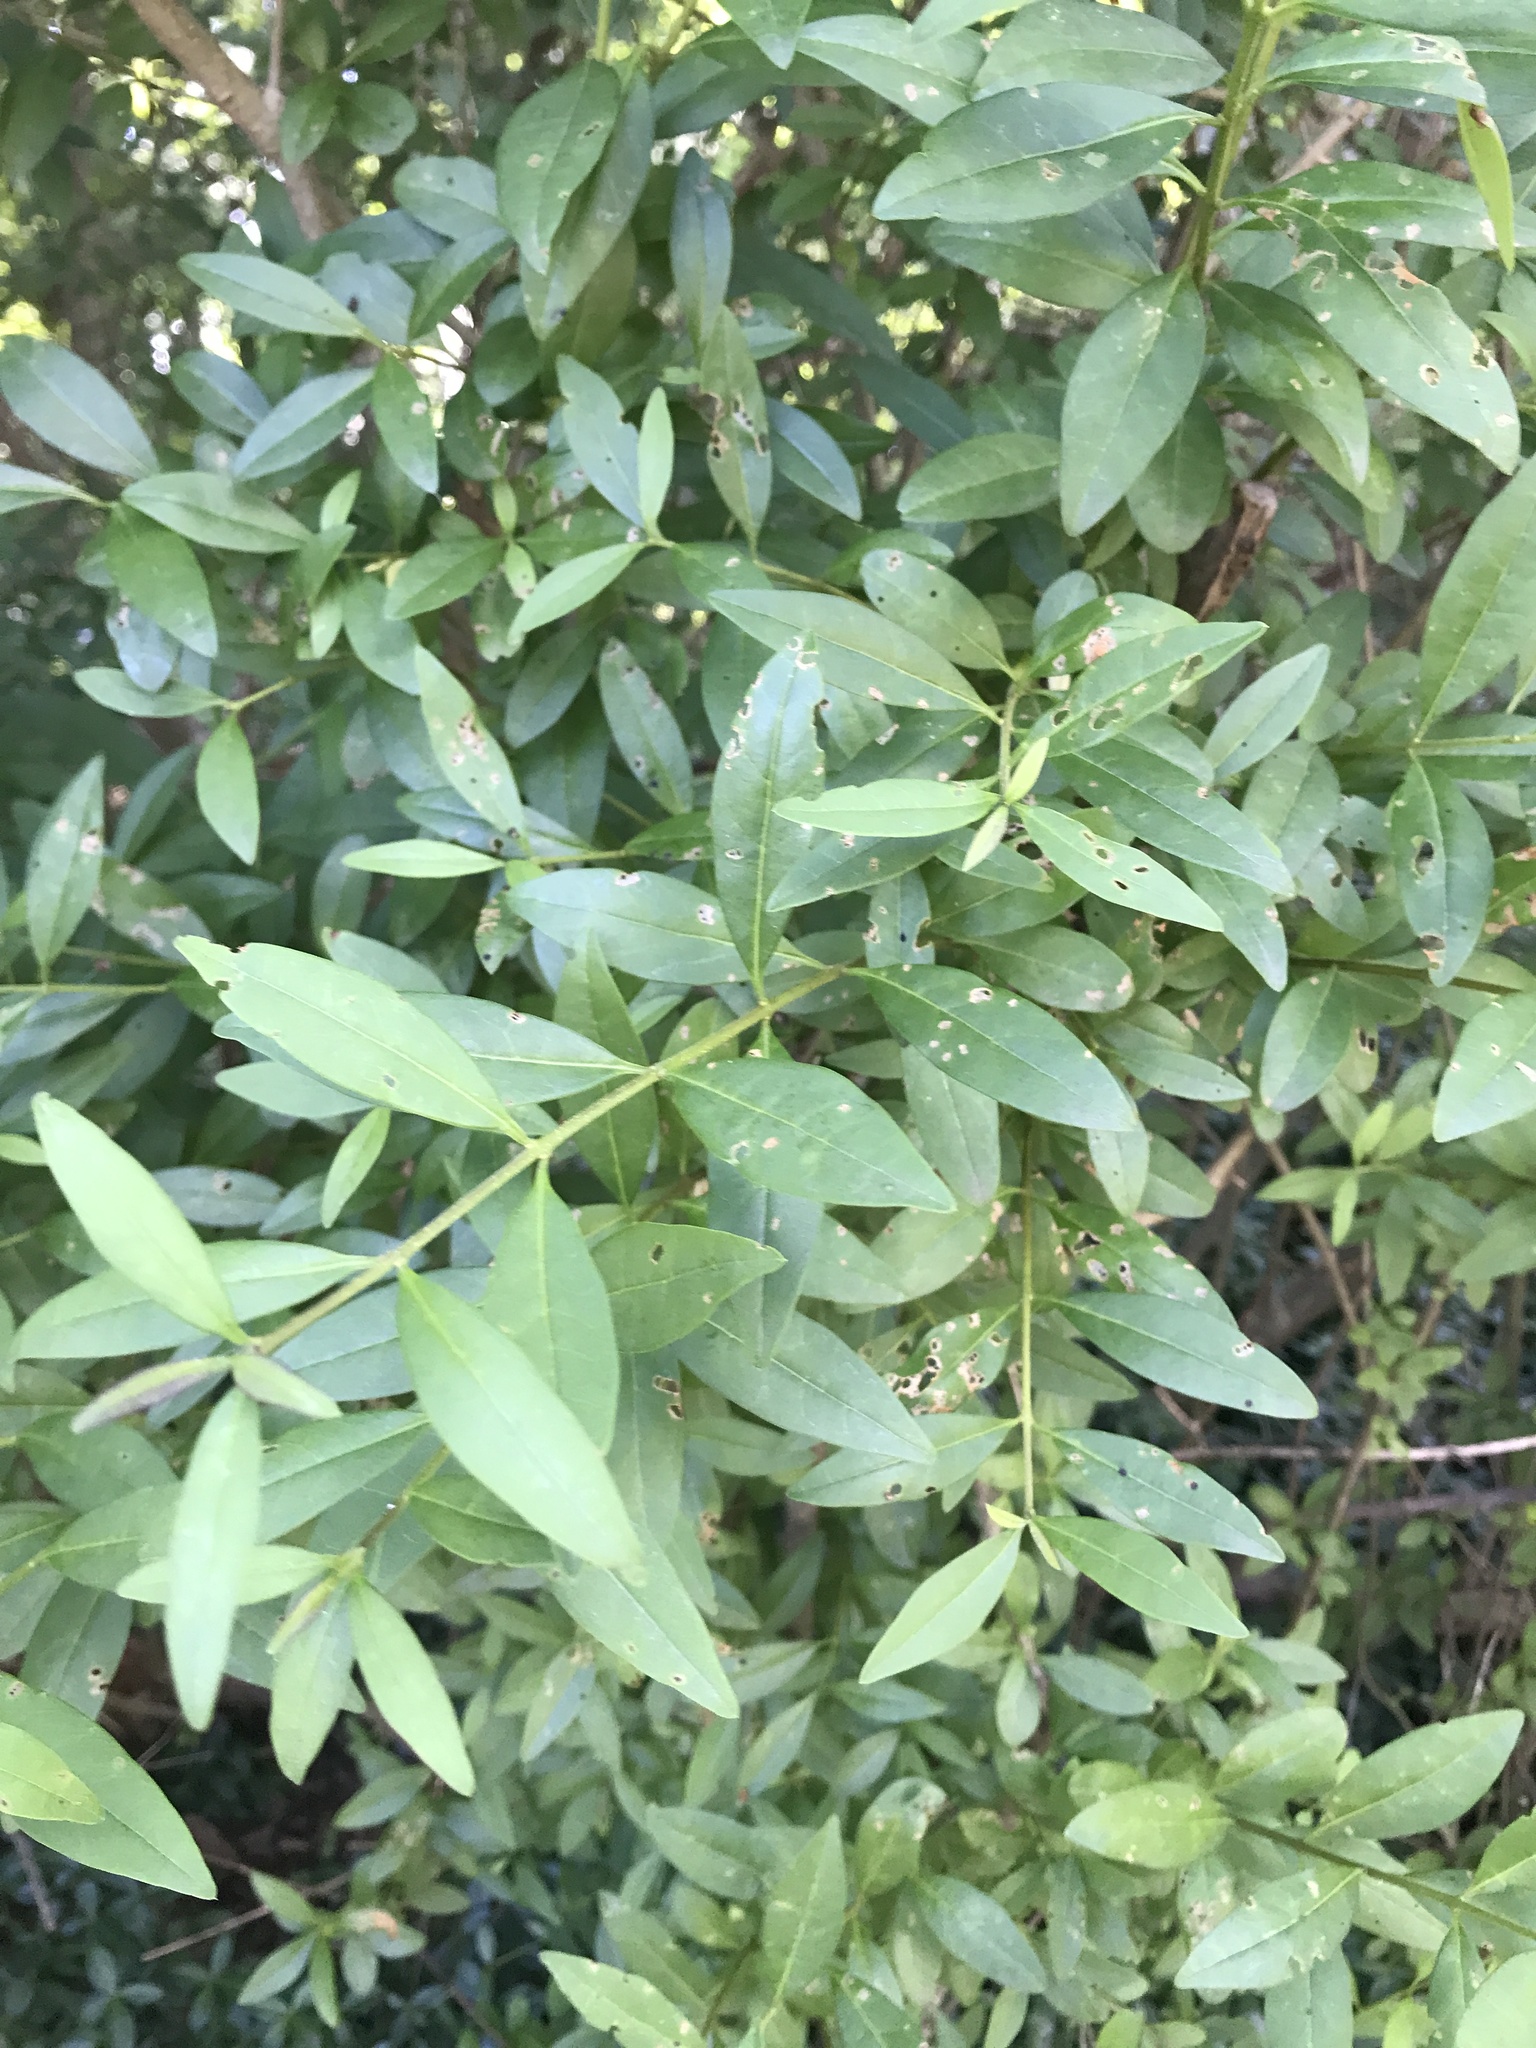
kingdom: Plantae
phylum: Tracheophyta
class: Magnoliopsida
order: Lamiales
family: Oleaceae
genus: Ligustrum
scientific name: Ligustrum vulgare
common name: Wild privet
